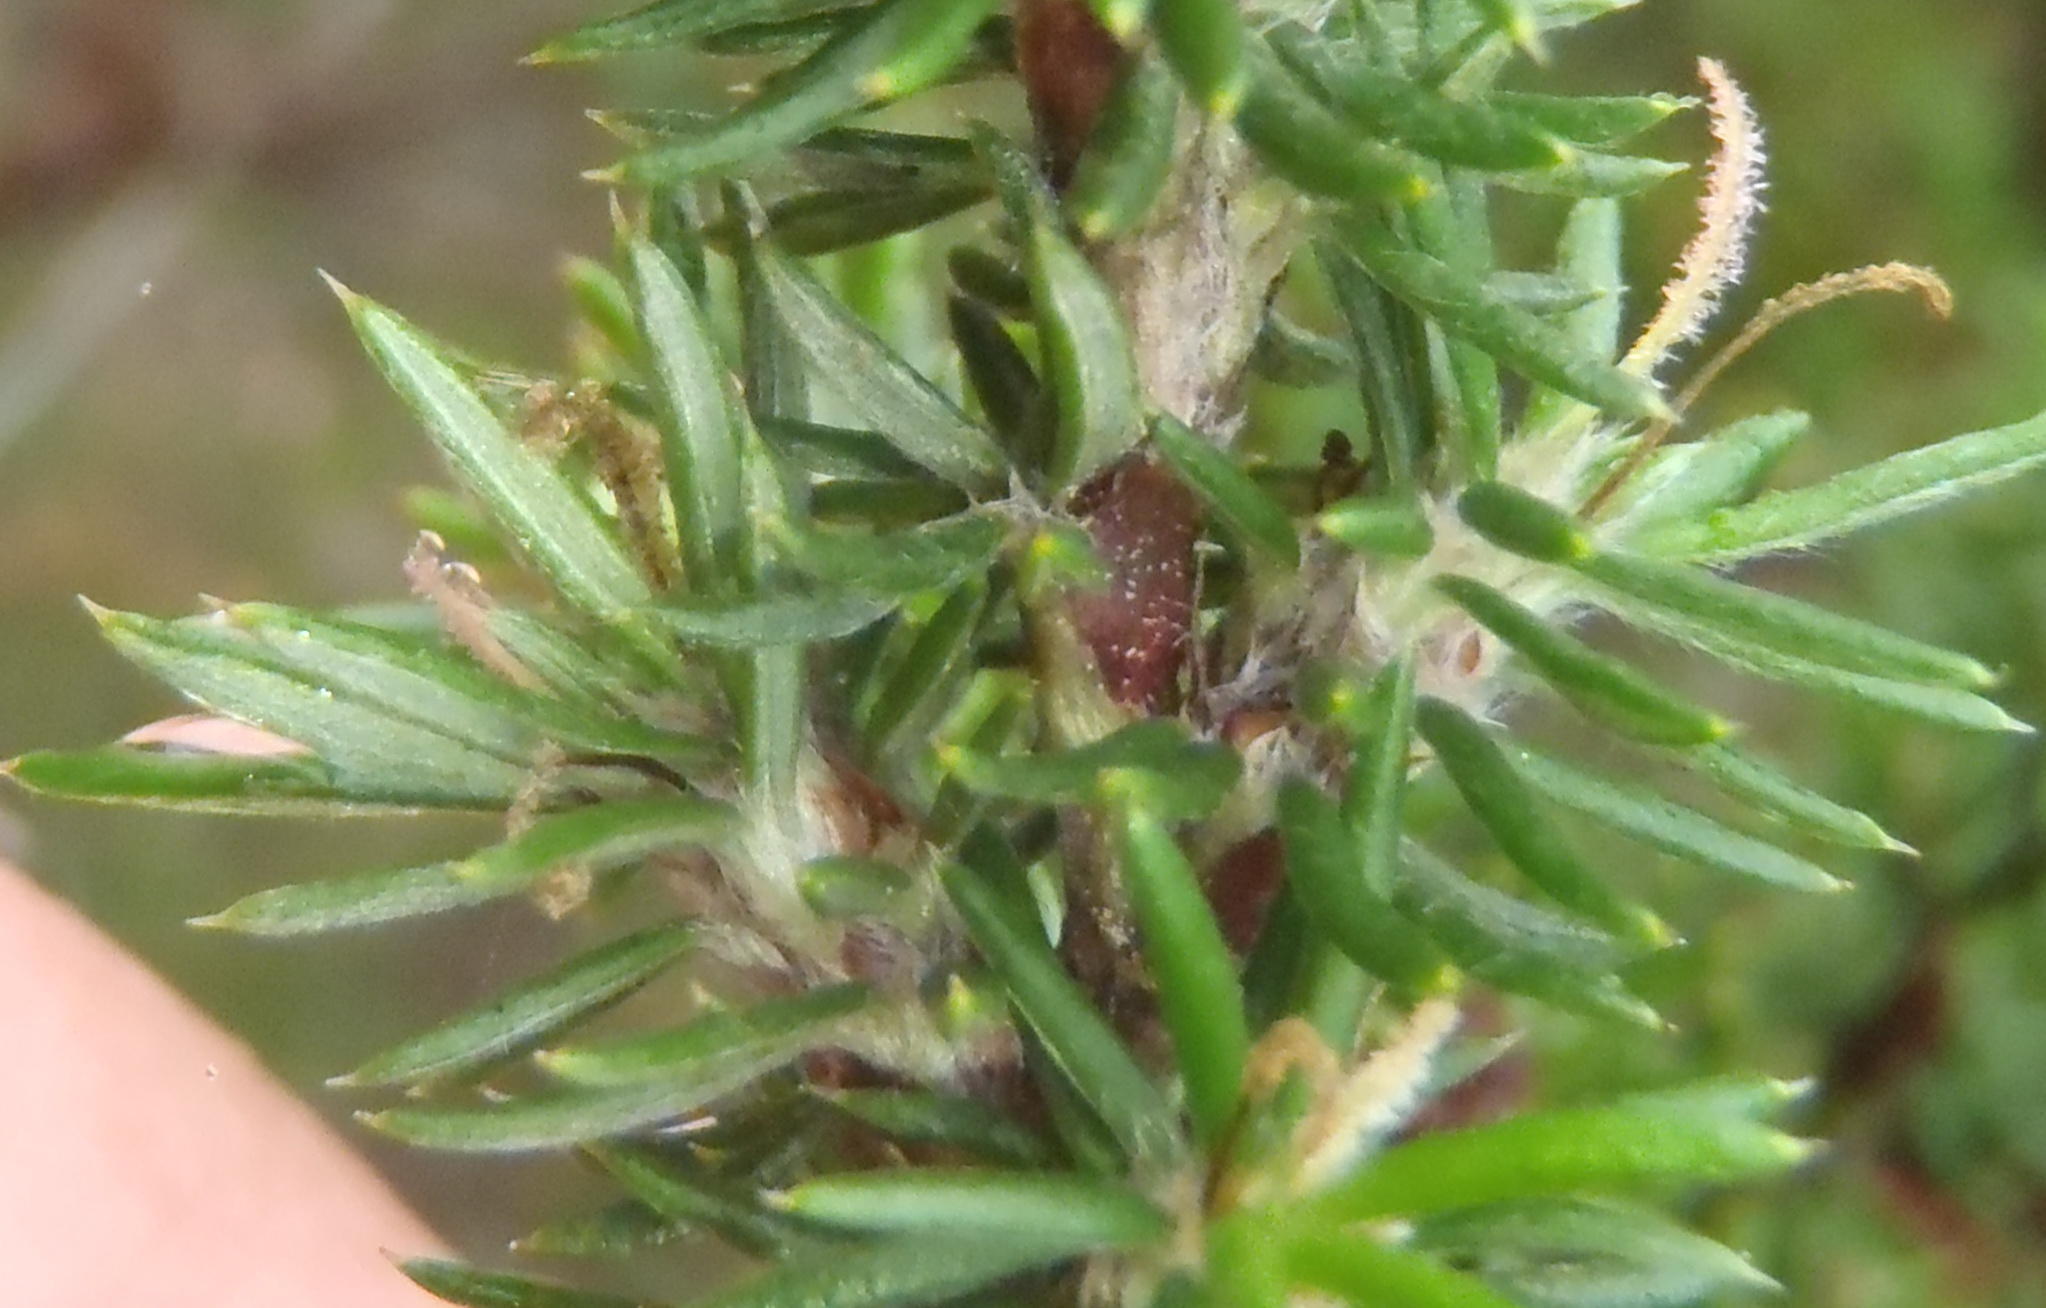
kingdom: Plantae
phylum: Tracheophyta
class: Magnoliopsida
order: Rosales
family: Rosaceae
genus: Cliffortia
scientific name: Cliffortia stricta
